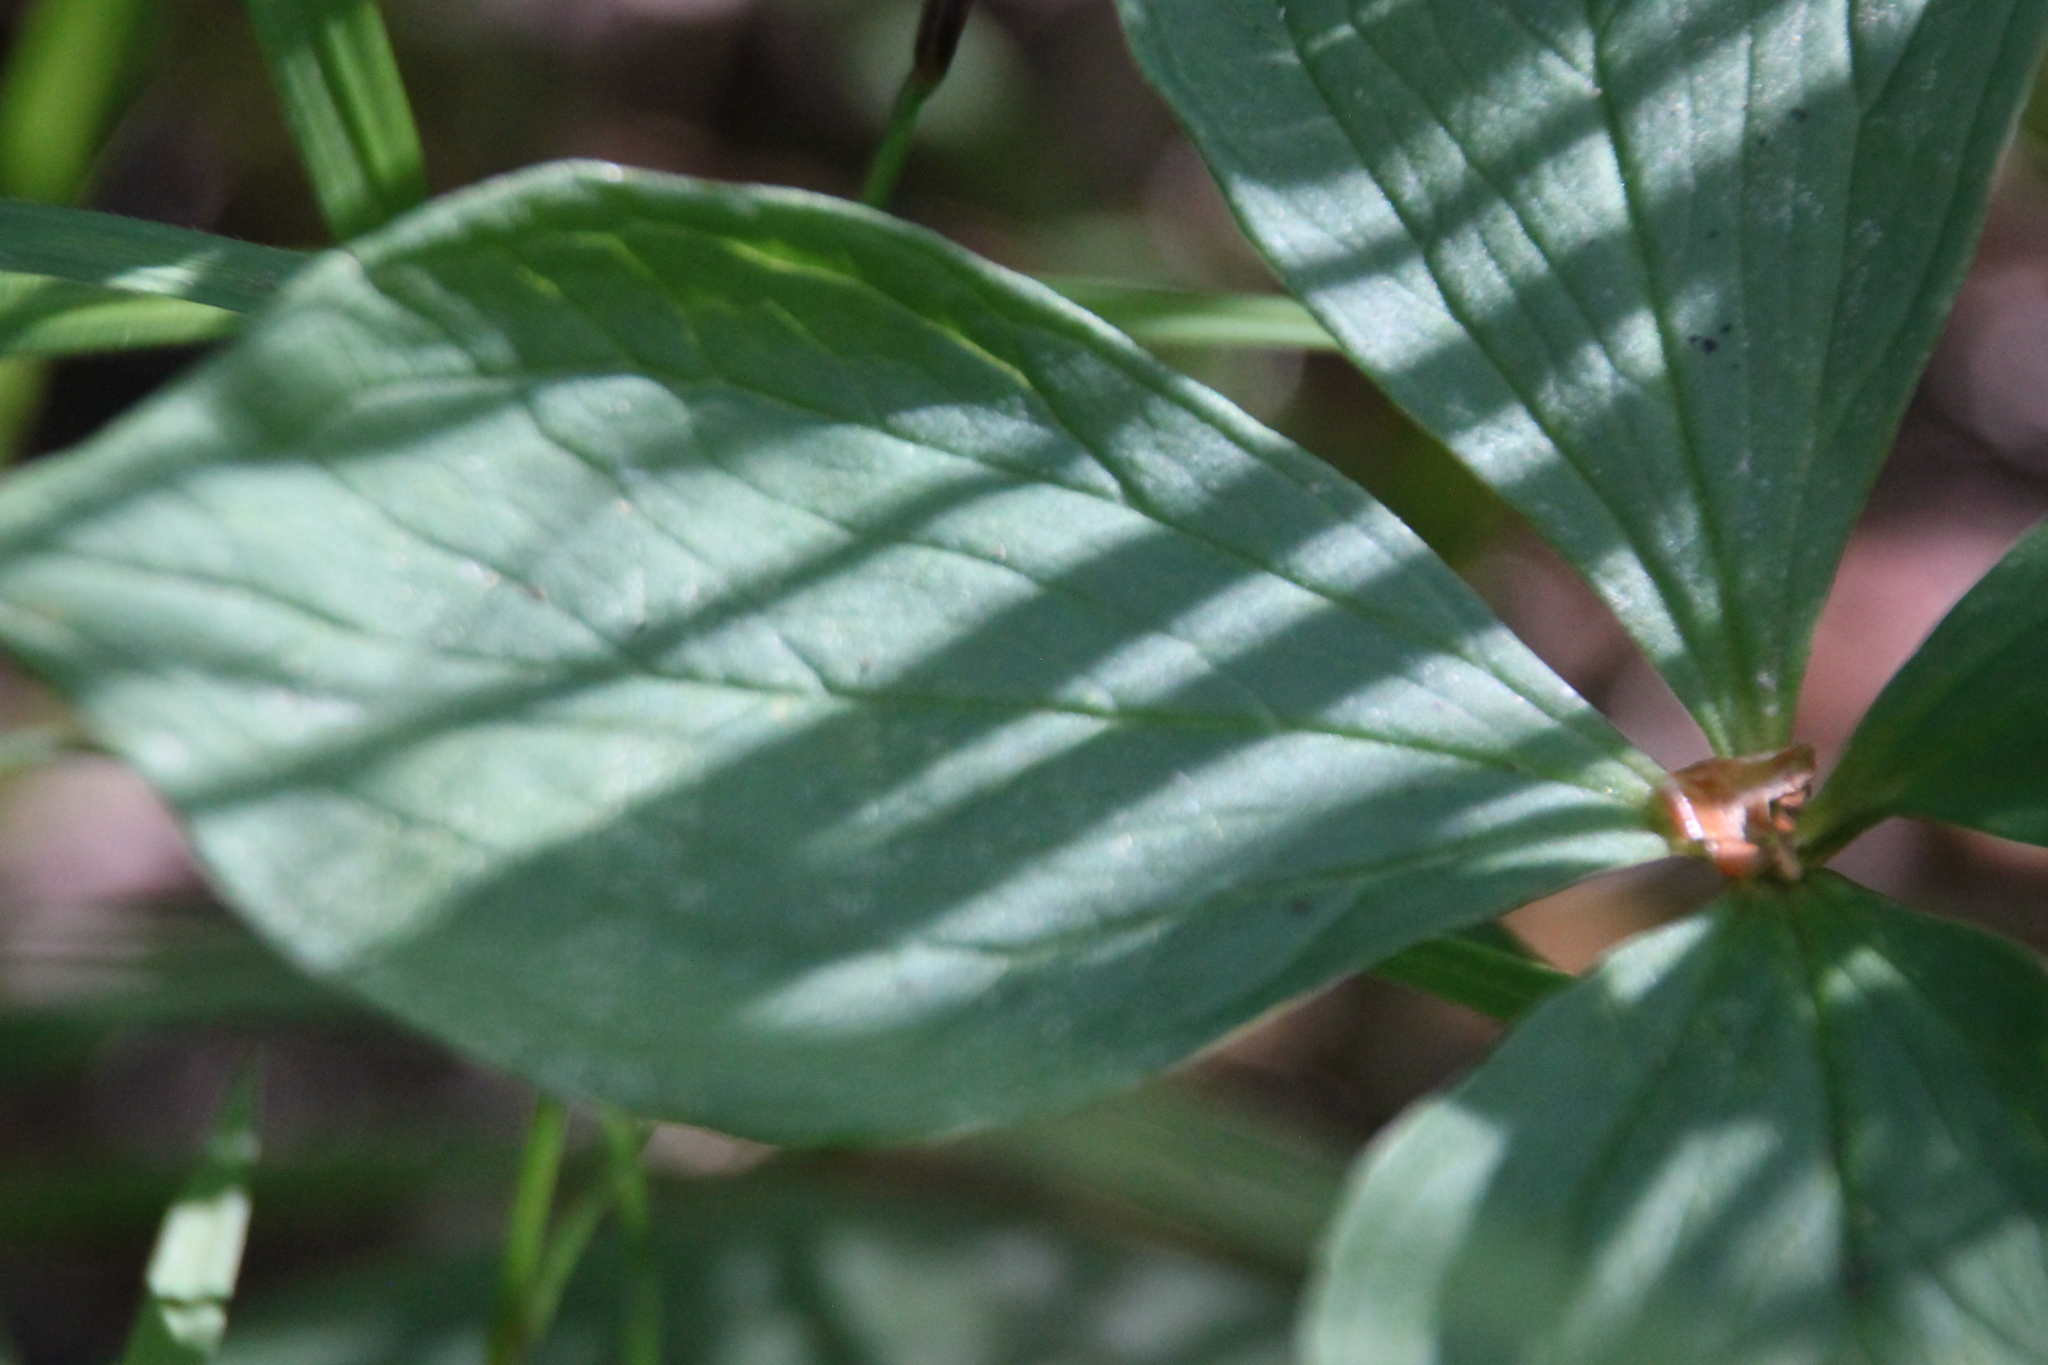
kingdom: Plantae
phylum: Tracheophyta
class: Liliopsida
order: Liliales
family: Melanthiaceae
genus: Paris
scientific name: Paris quadrifolia
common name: Herb-paris
